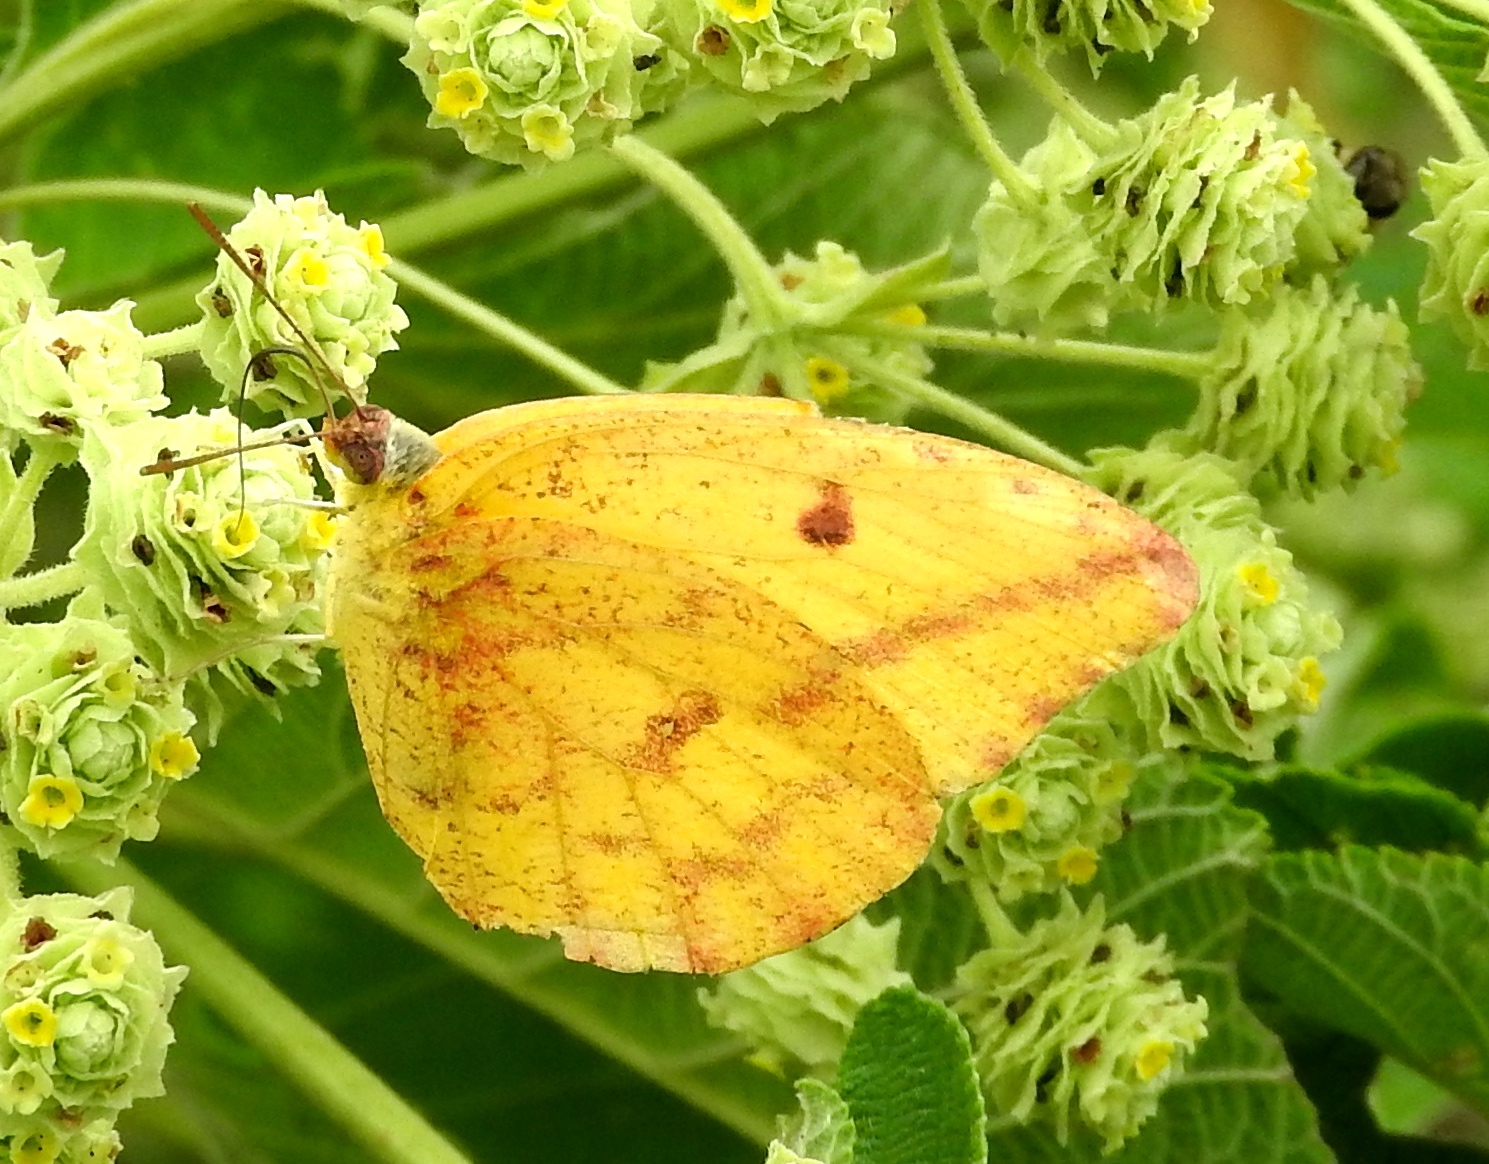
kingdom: Animalia
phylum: Arthropoda
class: Insecta
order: Lepidoptera
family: Pieridae
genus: Phoebis
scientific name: Phoebis agarithe
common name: Large orange sulphur
